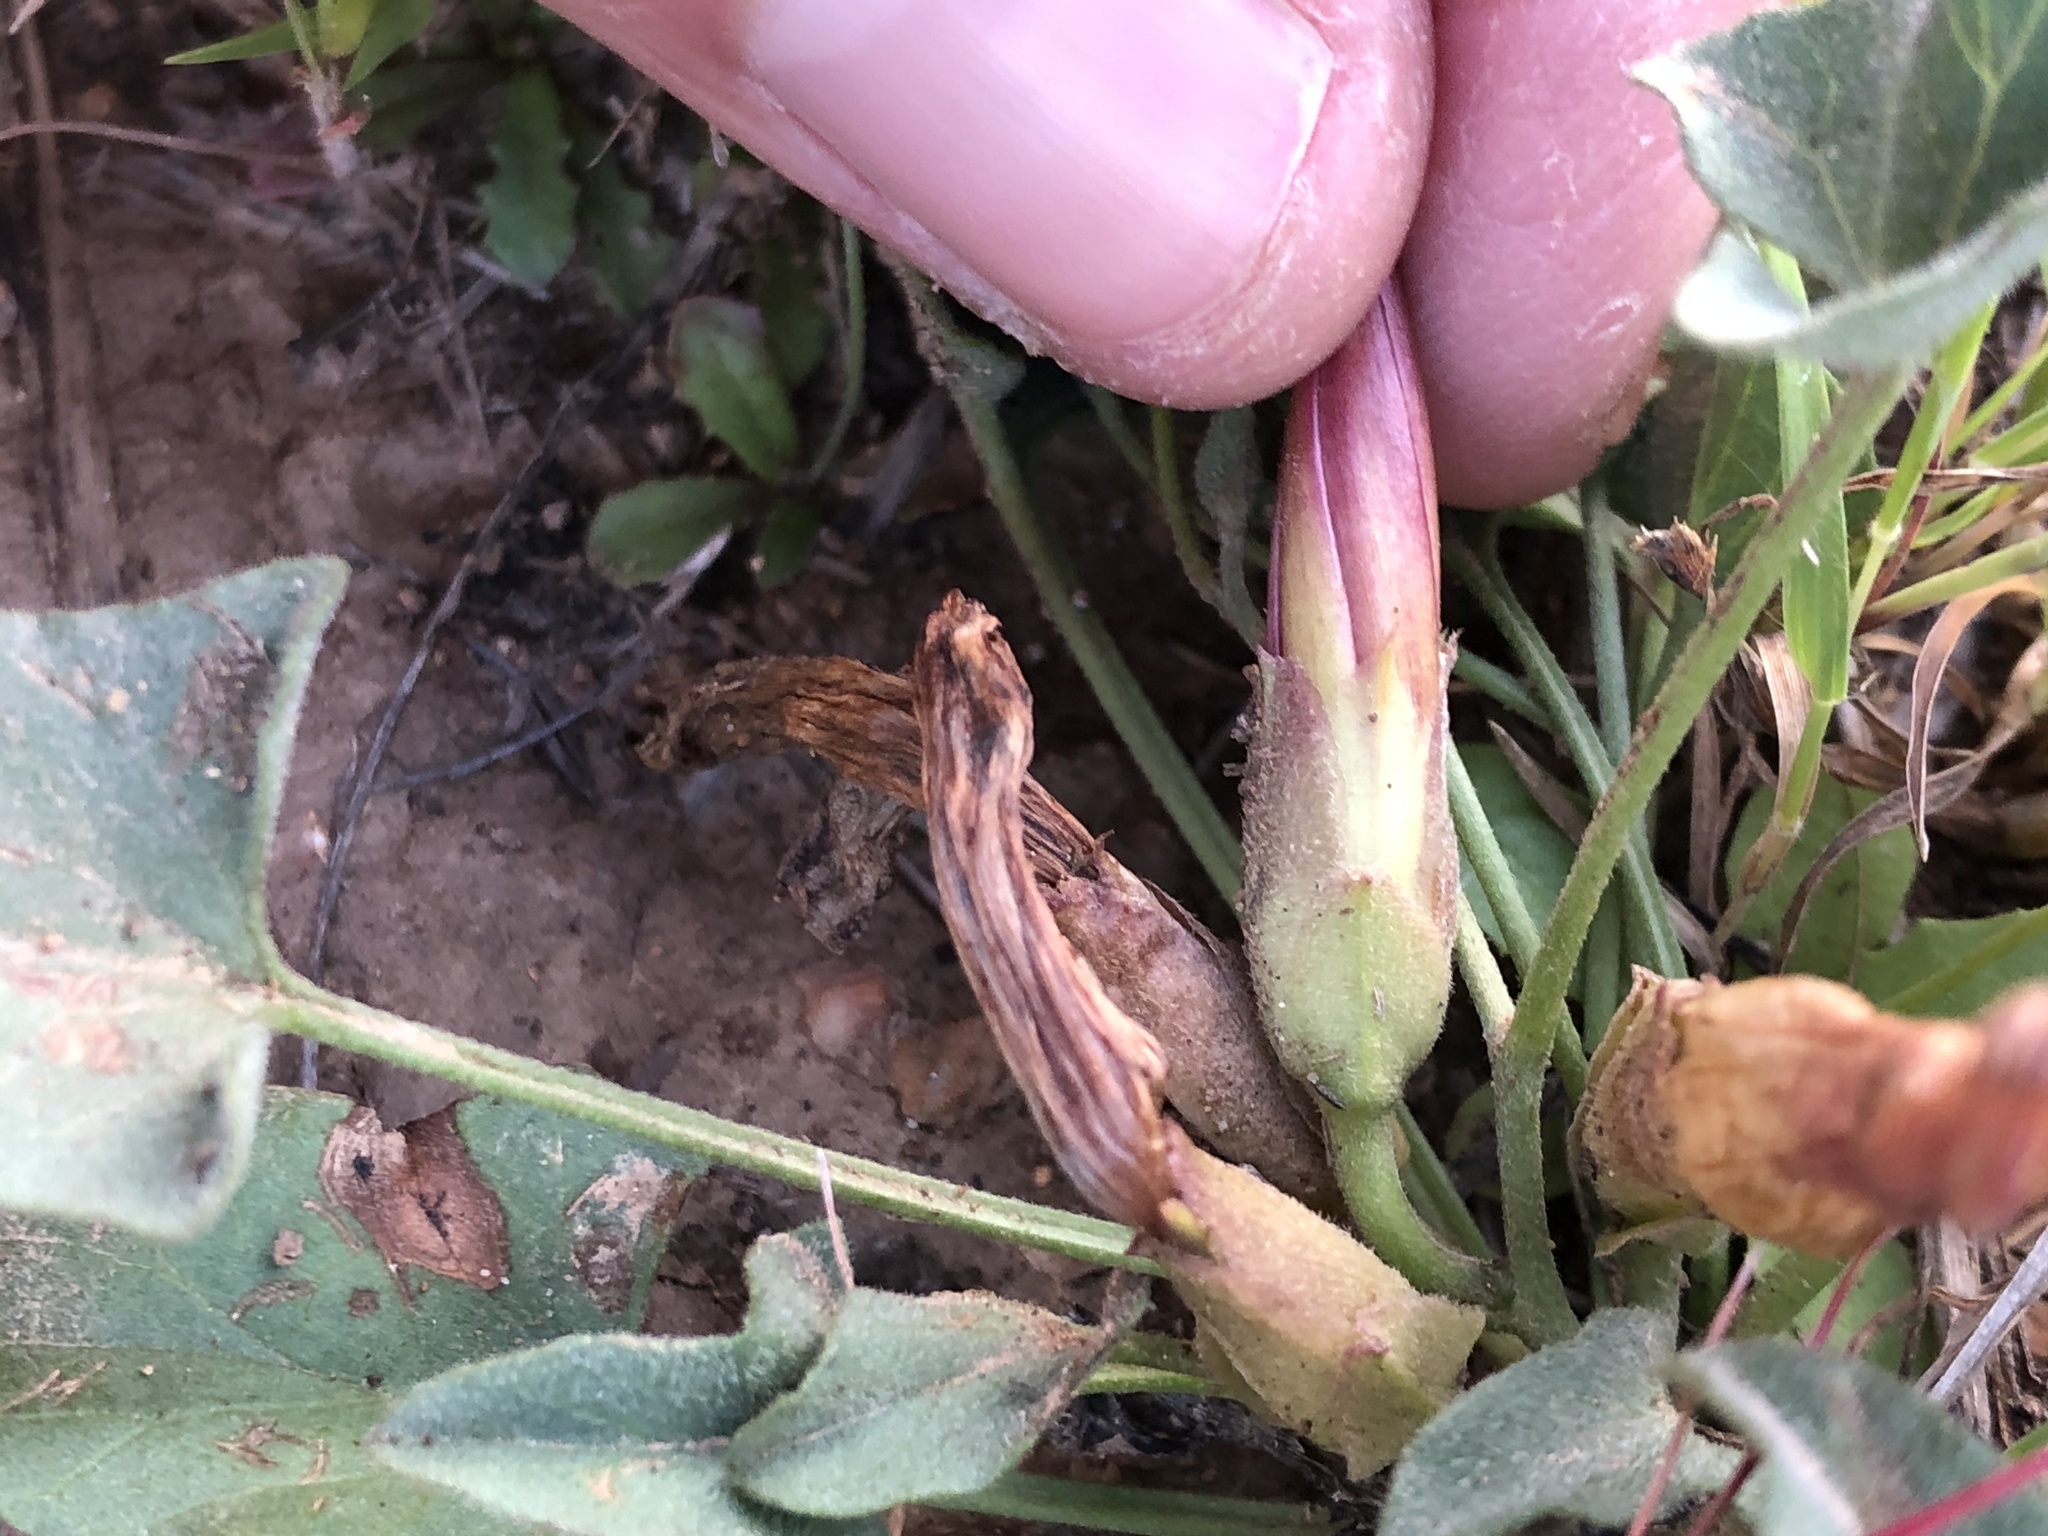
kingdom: Plantae
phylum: Tracheophyta
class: Magnoliopsida
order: Solanales
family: Convolvulaceae
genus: Calystegia
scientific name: Calystegia subacaulis
